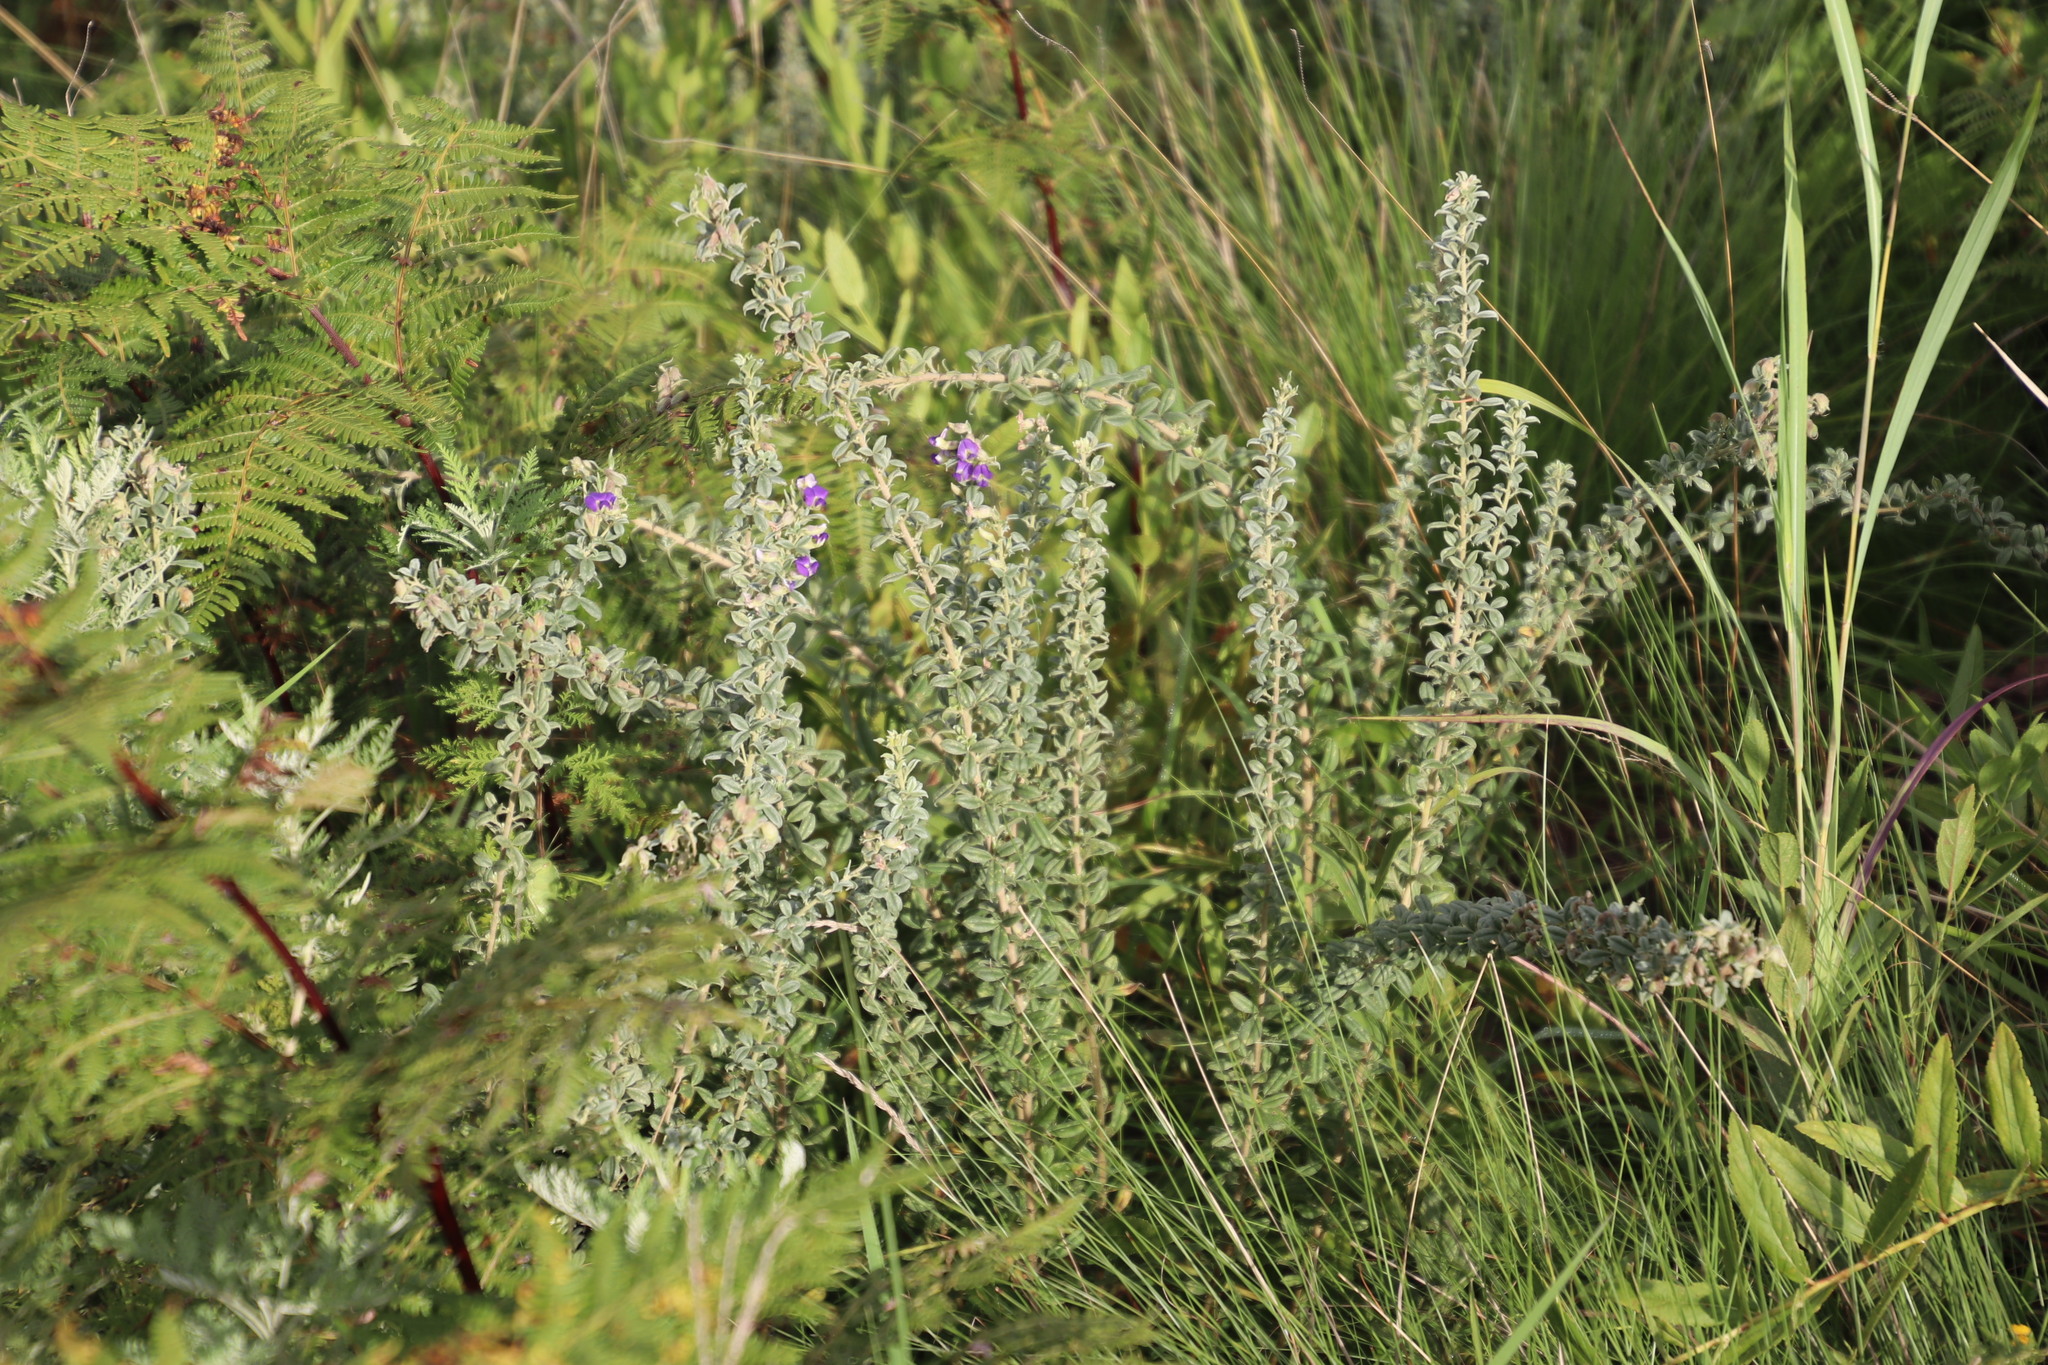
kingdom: Plantae
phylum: Tracheophyta
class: Magnoliopsida
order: Fabales
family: Fabaceae
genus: Lotononis
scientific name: Lotononis lotononoides
